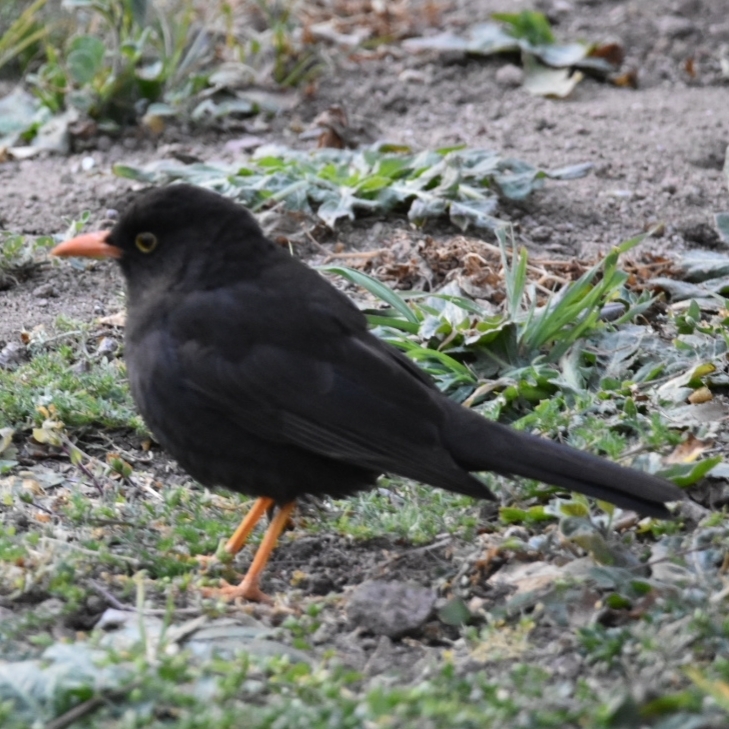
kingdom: Animalia
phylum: Chordata
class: Aves
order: Passeriformes
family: Turdidae
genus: Turdus
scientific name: Turdus chiguanco
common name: Chiguanco thrush
